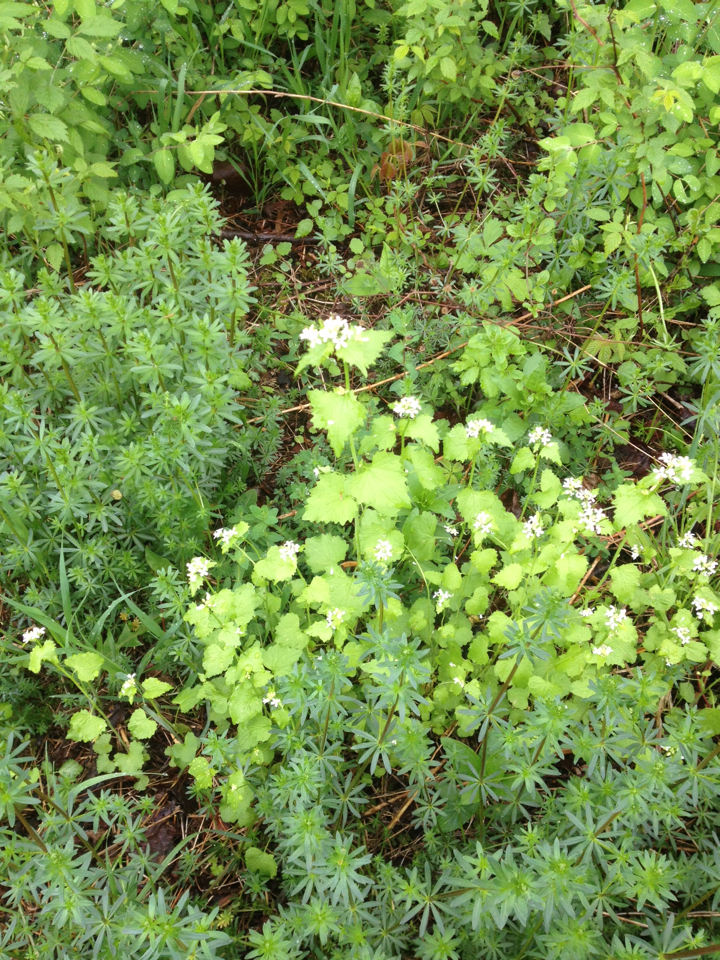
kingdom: Plantae
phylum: Tracheophyta
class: Magnoliopsida
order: Brassicales
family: Brassicaceae
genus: Alliaria
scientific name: Alliaria petiolata
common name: Garlic mustard
